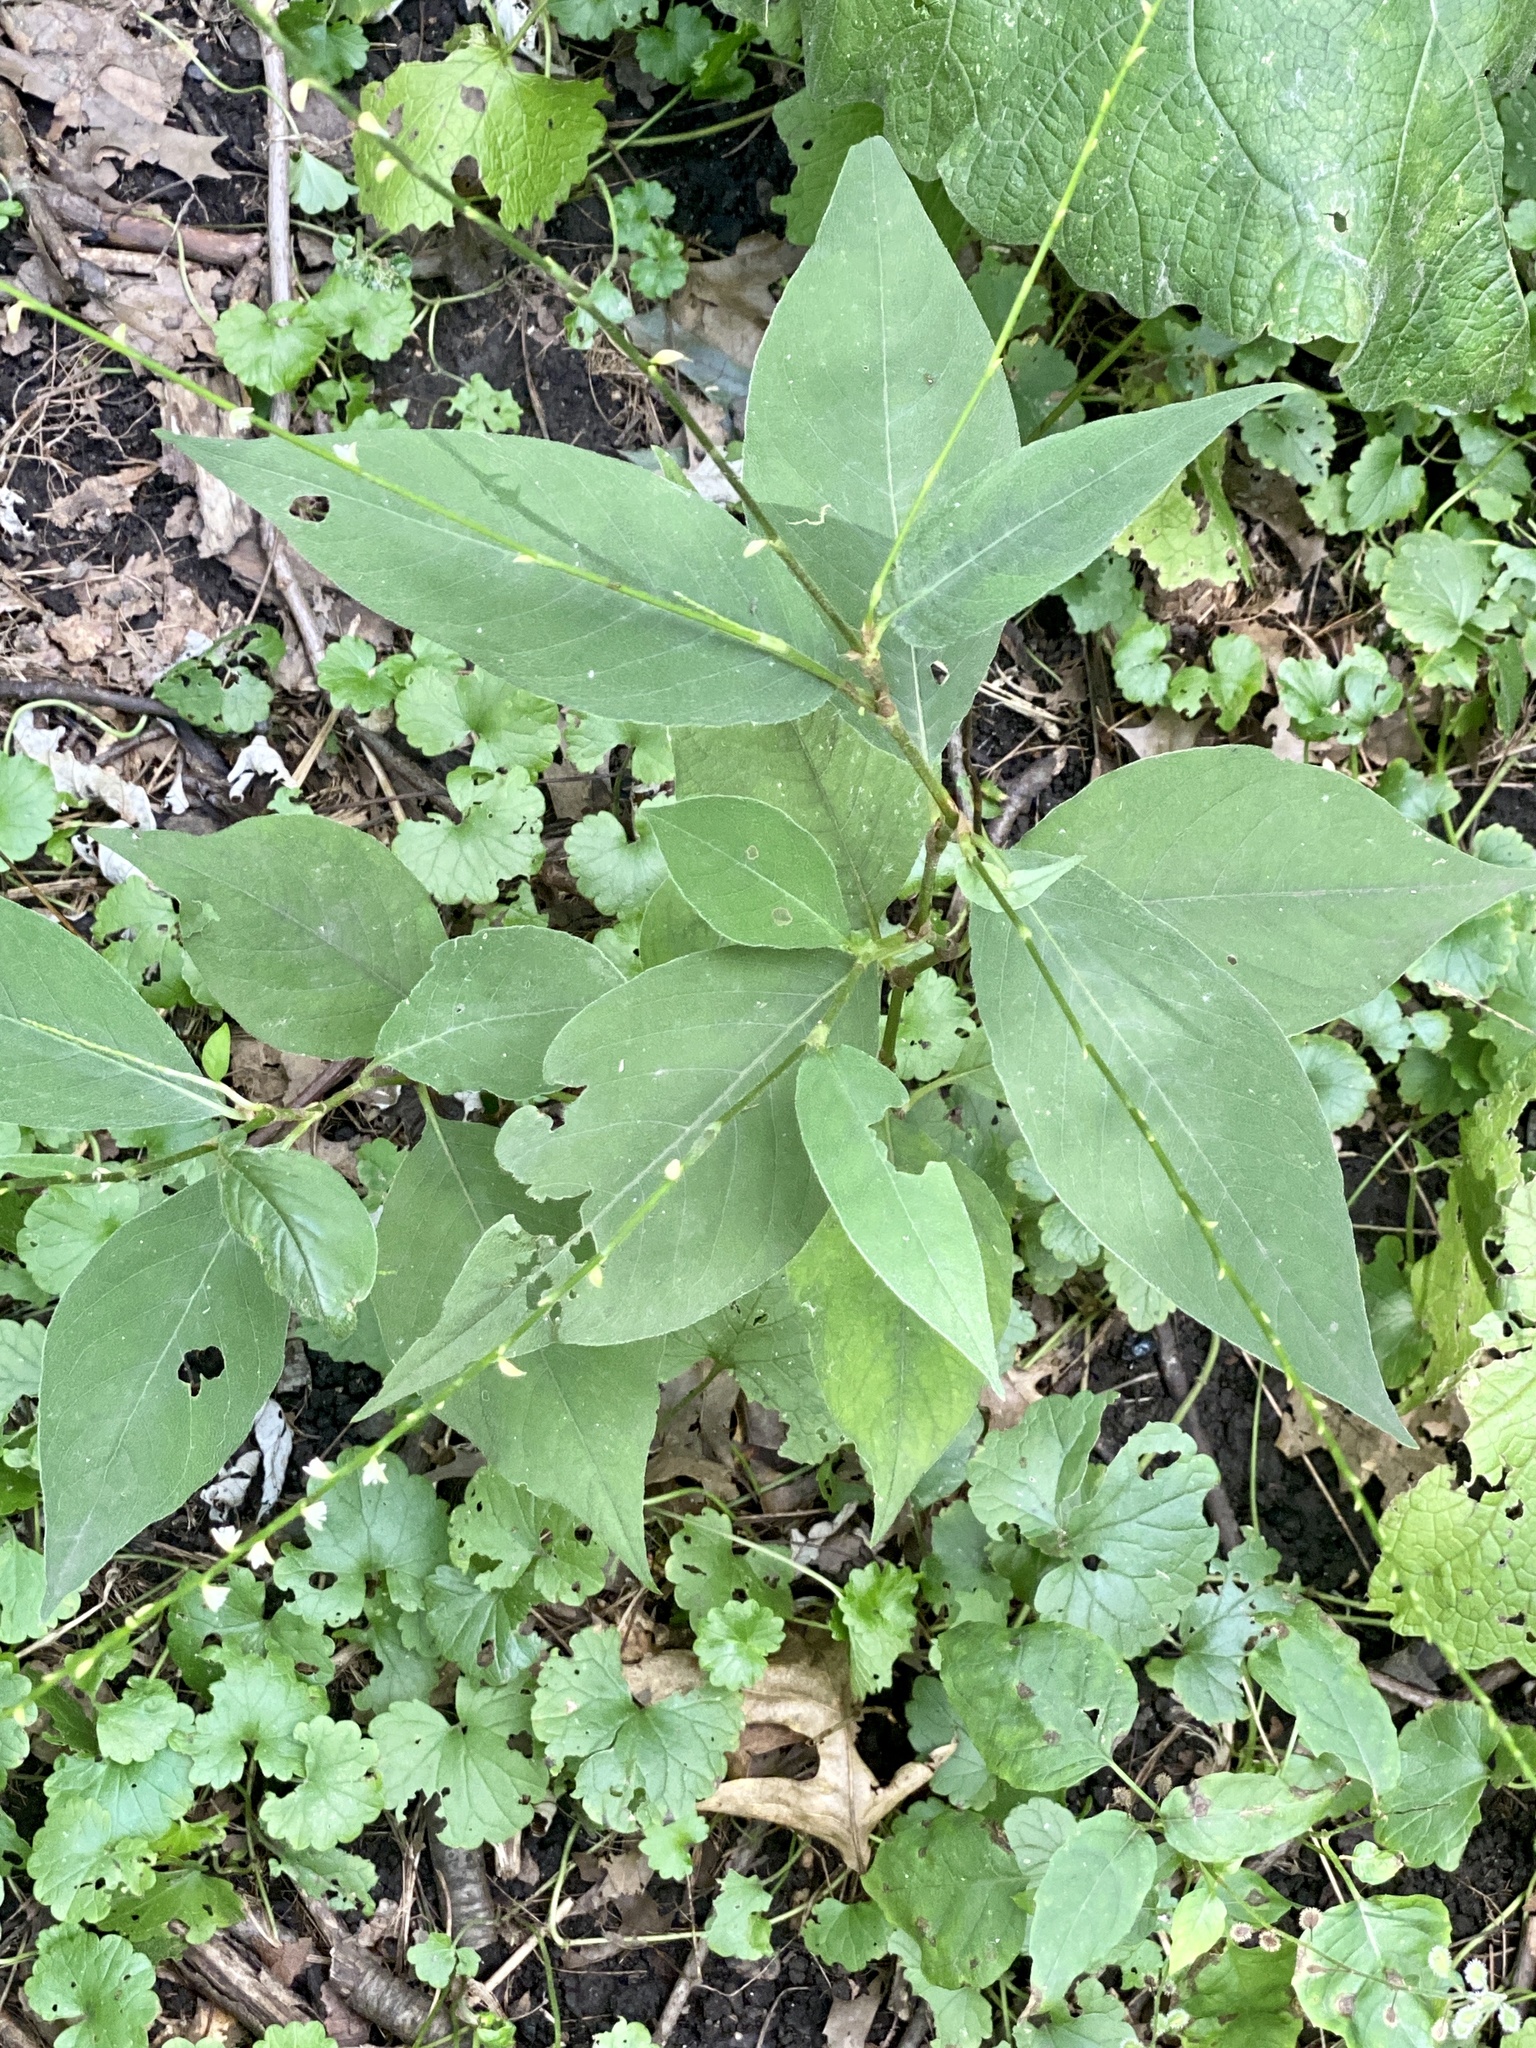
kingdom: Plantae
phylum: Tracheophyta
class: Magnoliopsida
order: Caryophyllales
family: Polygonaceae
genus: Persicaria
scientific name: Persicaria virginiana
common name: Jumpseed
